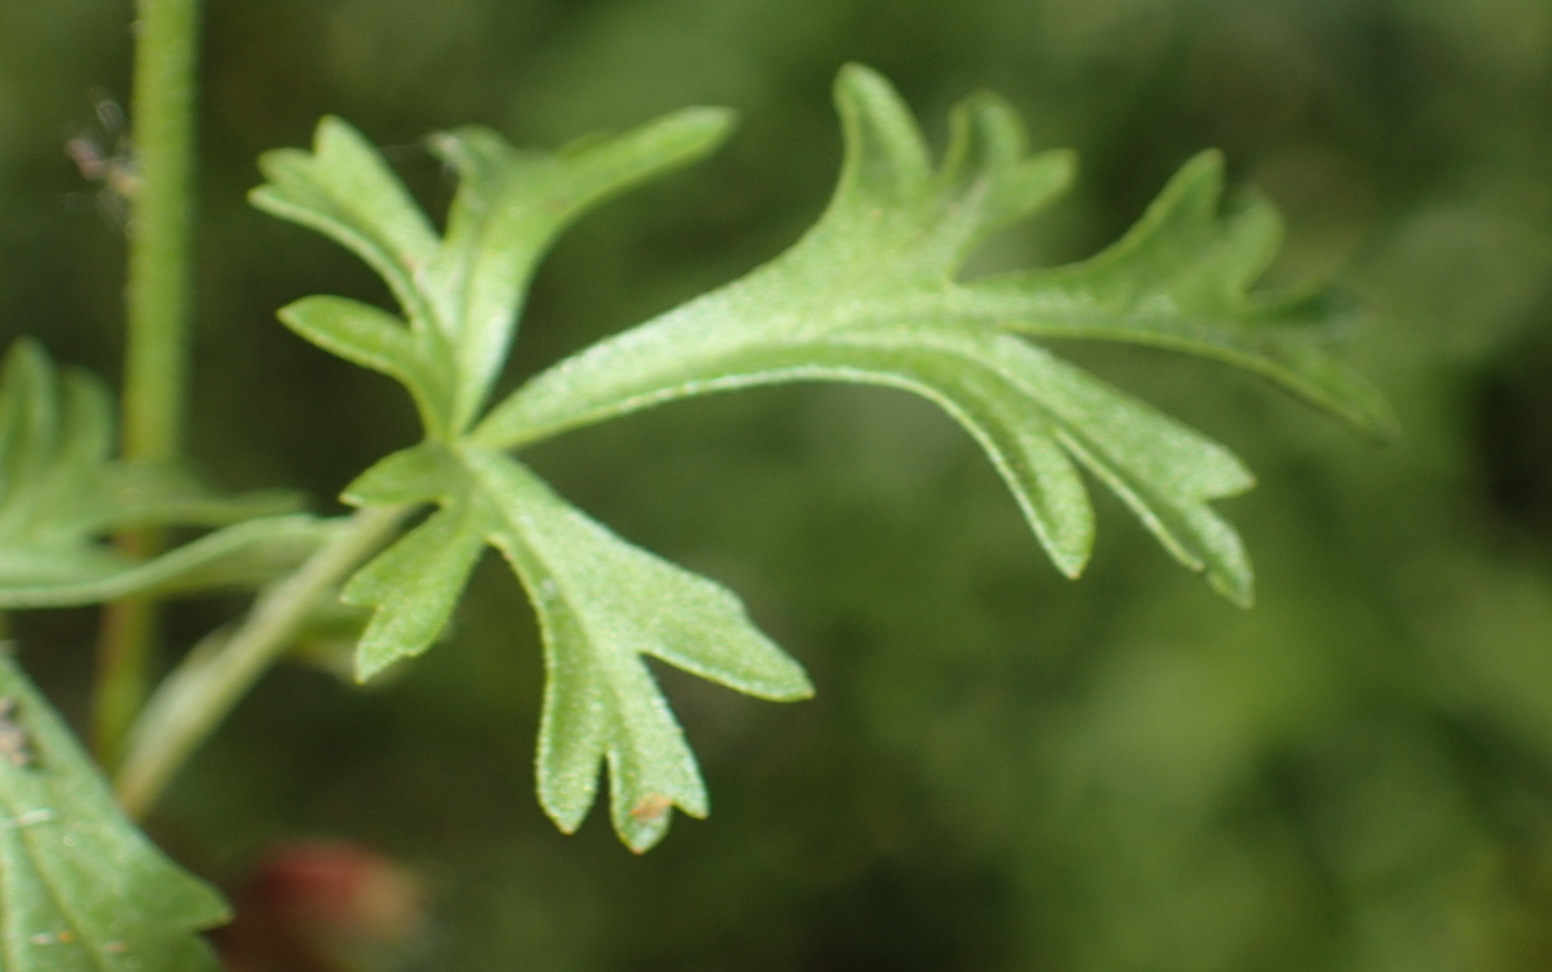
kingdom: Plantae
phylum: Tracheophyta
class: Magnoliopsida
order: Geraniales
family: Geraniaceae
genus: Pelargonium
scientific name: Pelargonium multicaule
